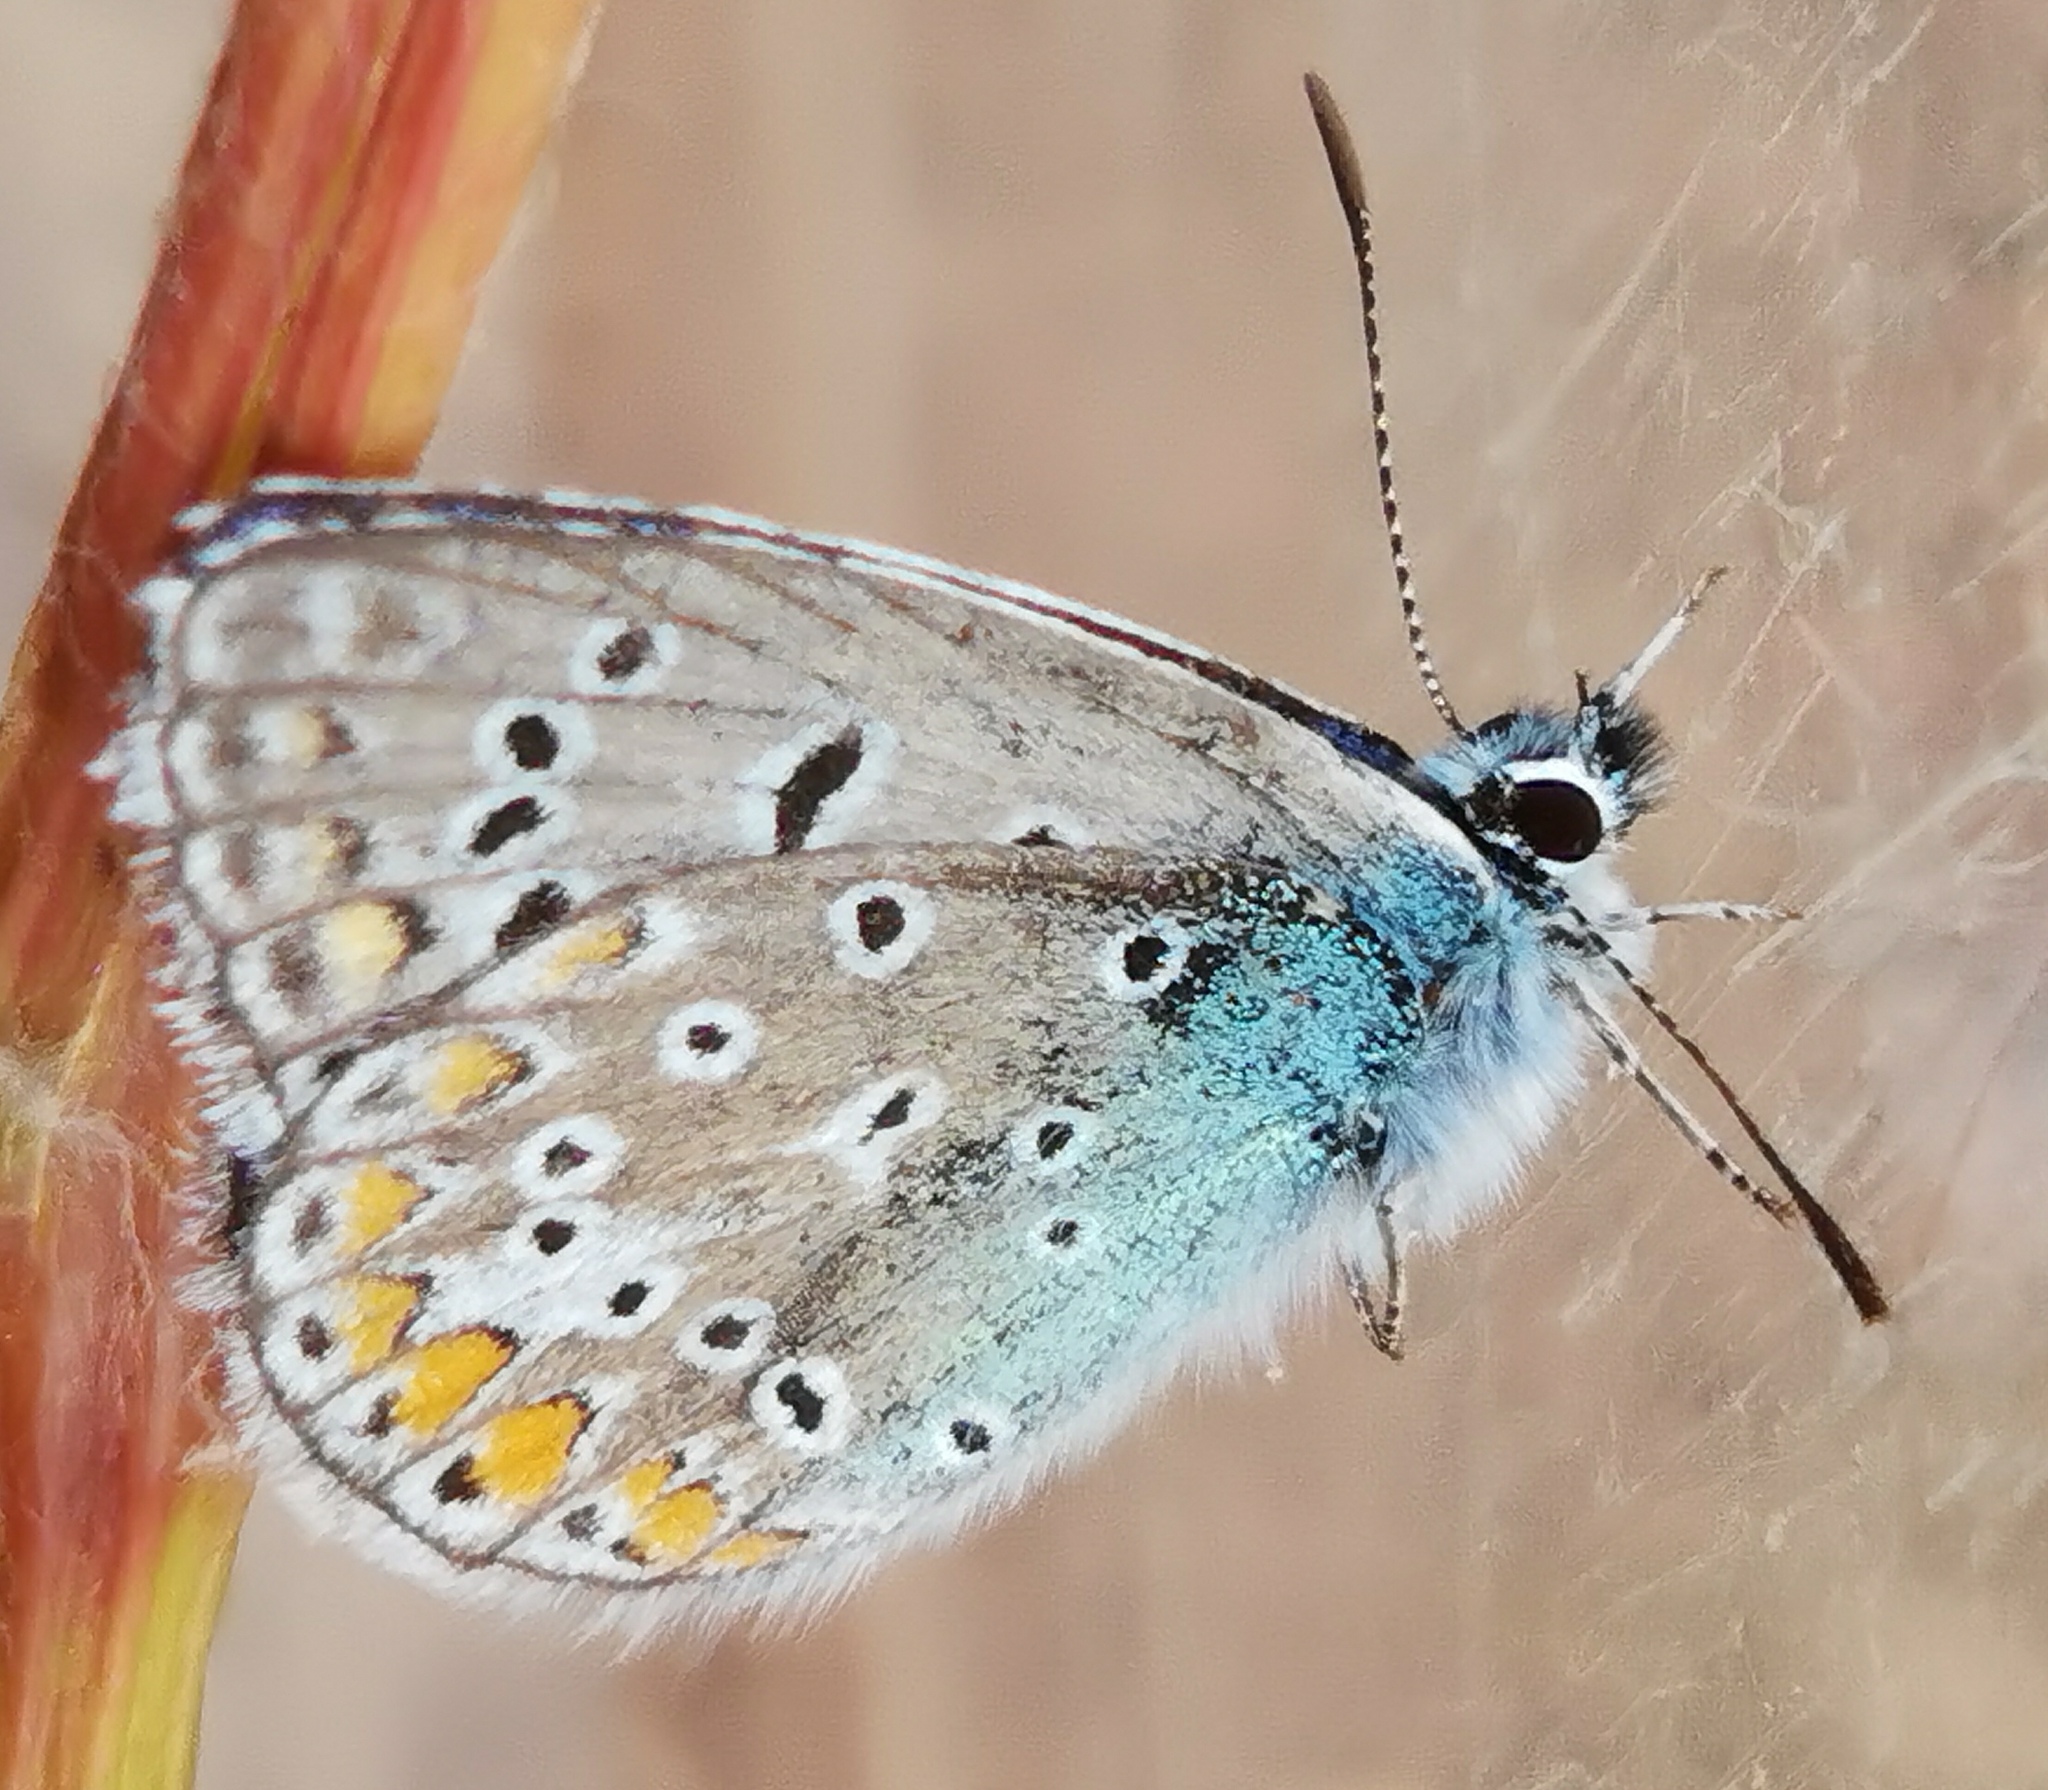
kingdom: Animalia
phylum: Arthropoda
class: Insecta
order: Lepidoptera
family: Lycaenidae
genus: Polyommatus
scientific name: Polyommatus icarus
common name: Common blue
